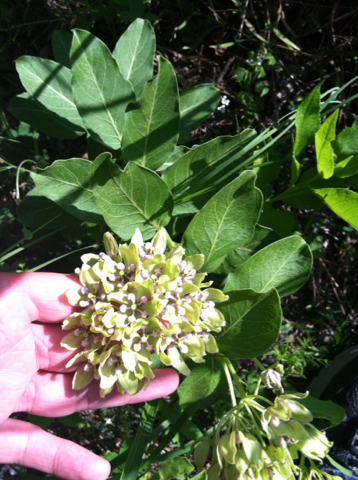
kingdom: Plantae
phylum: Tracheophyta
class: Magnoliopsida
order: Gentianales
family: Apocynaceae
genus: Asclepias
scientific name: Asclepias viridis
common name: Antelope-horns
